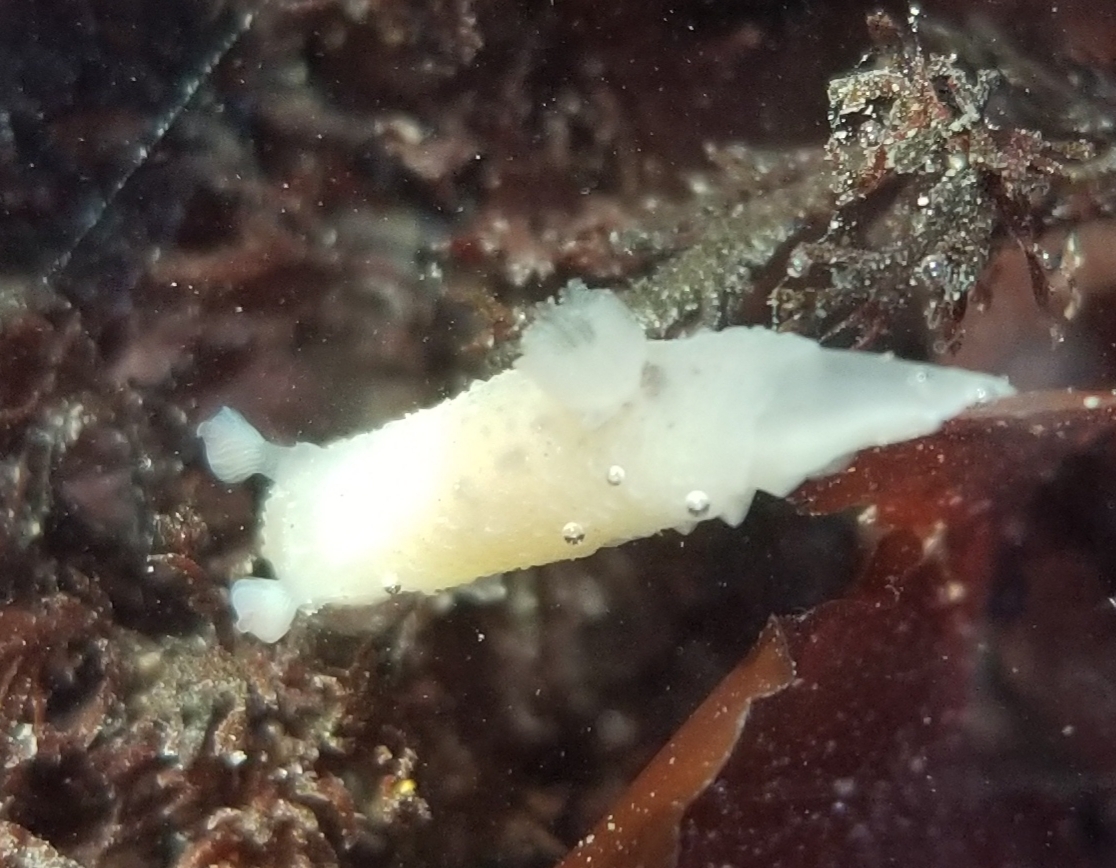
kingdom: Animalia
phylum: Mollusca
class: Gastropoda
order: Nudibranchia
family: Actinocyclidae
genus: Hallaxa
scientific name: Hallaxa chani
